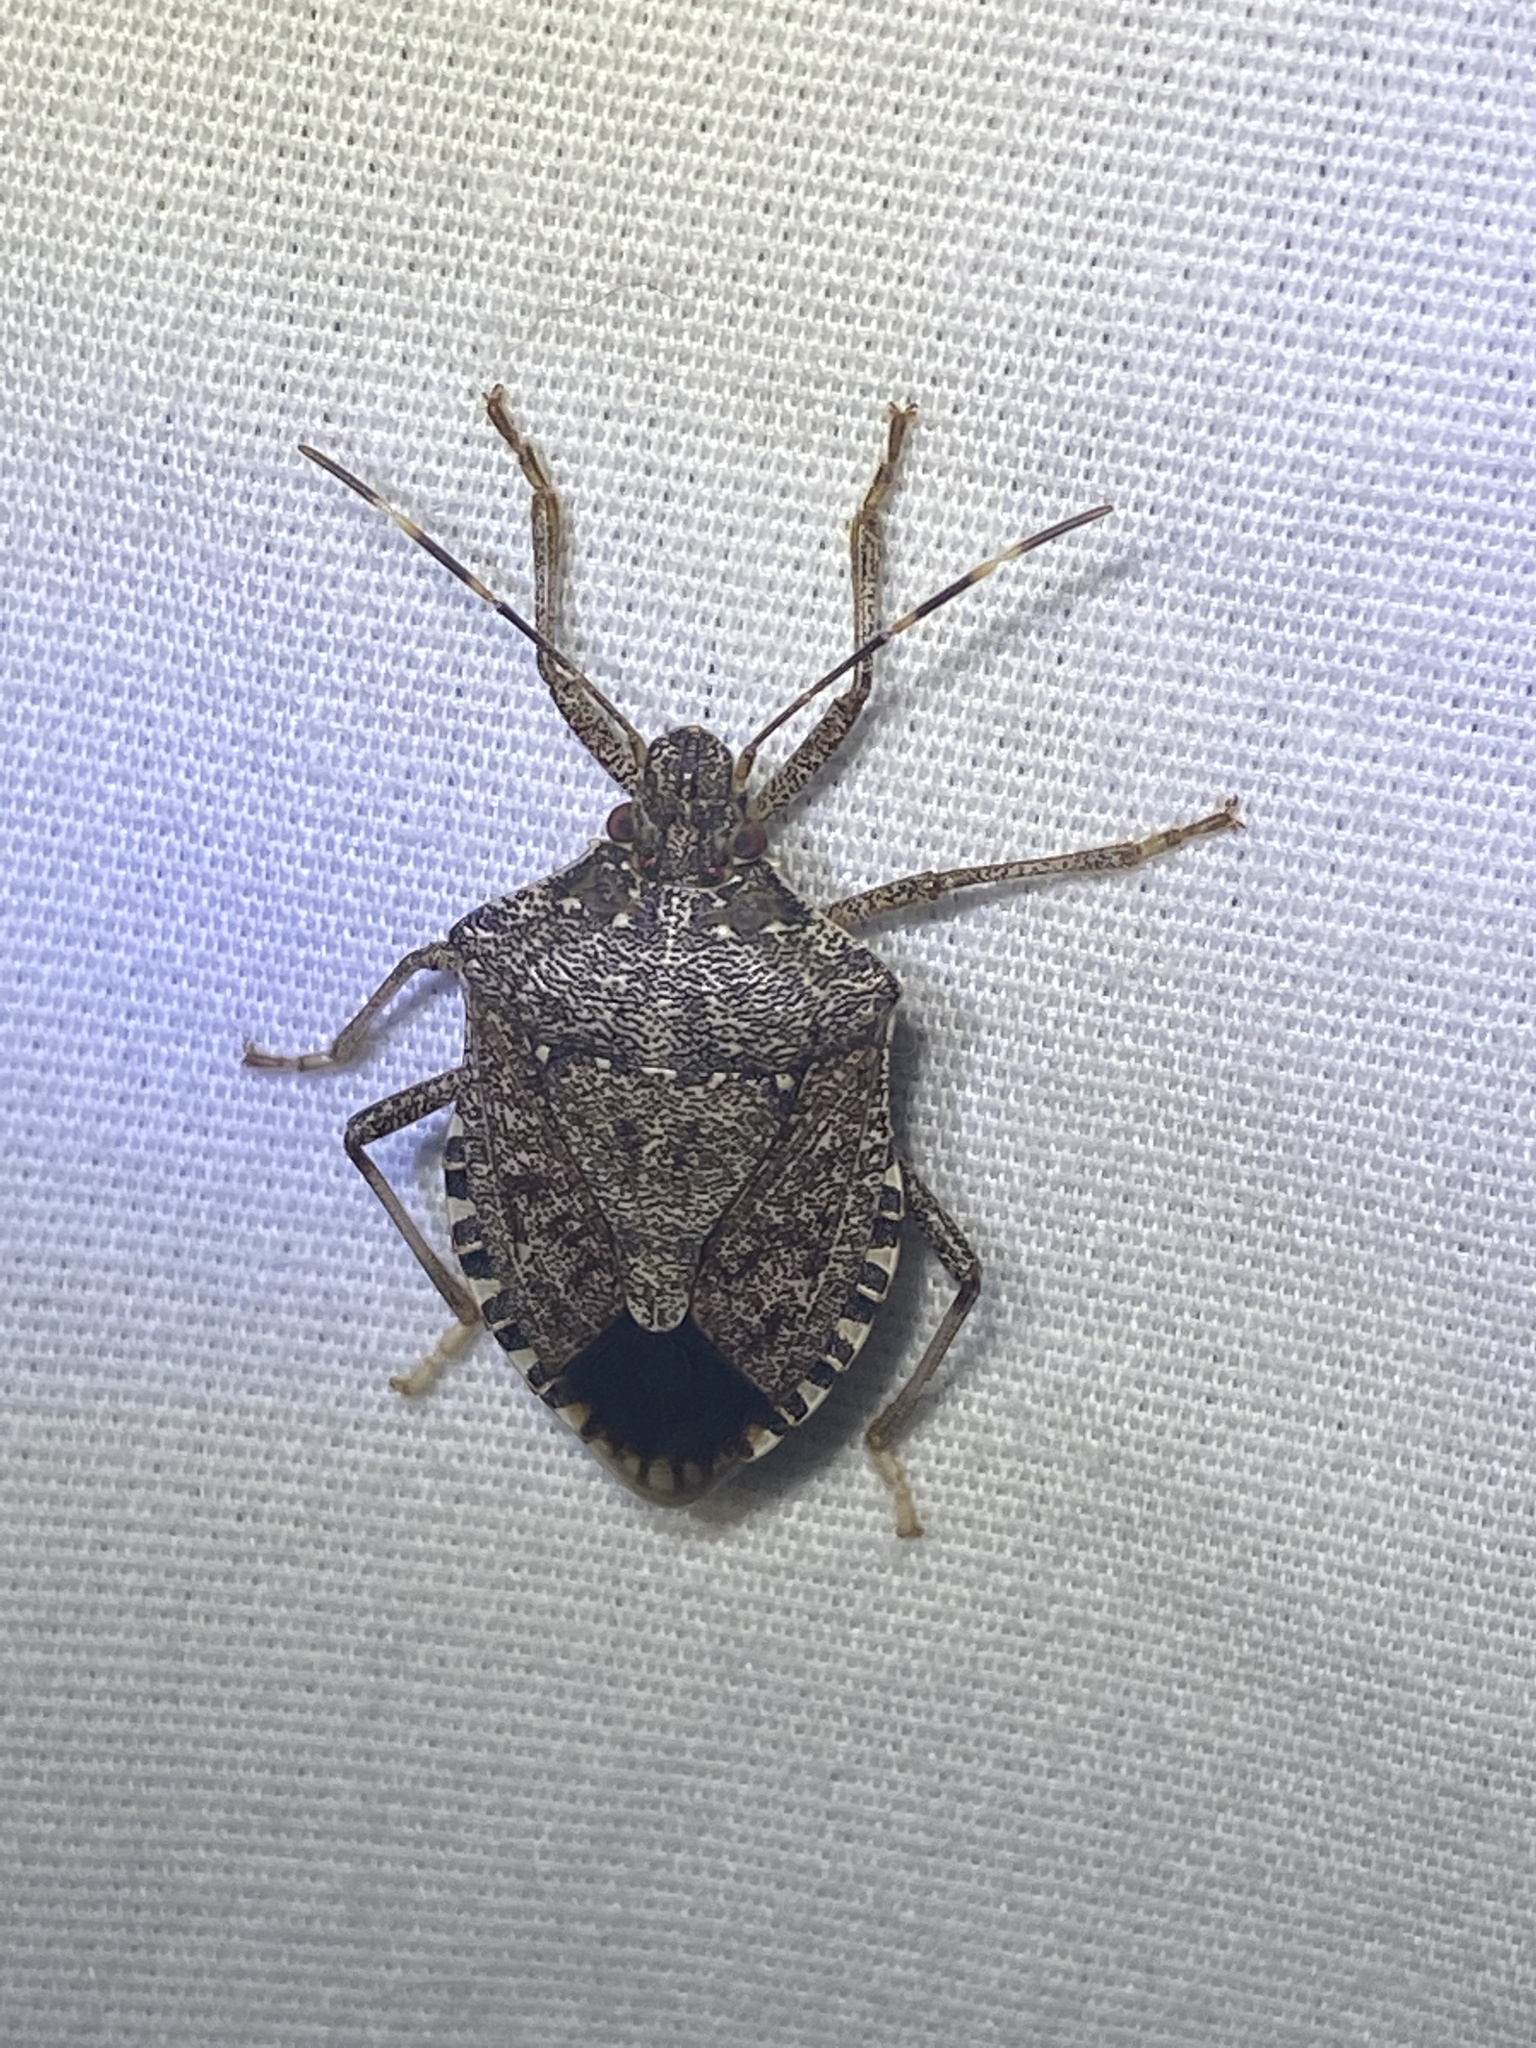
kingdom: Animalia
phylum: Arthropoda
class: Insecta
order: Hemiptera
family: Pentatomidae
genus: Halyomorpha
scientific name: Halyomorpha halys
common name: Brown marmorated stink bug
